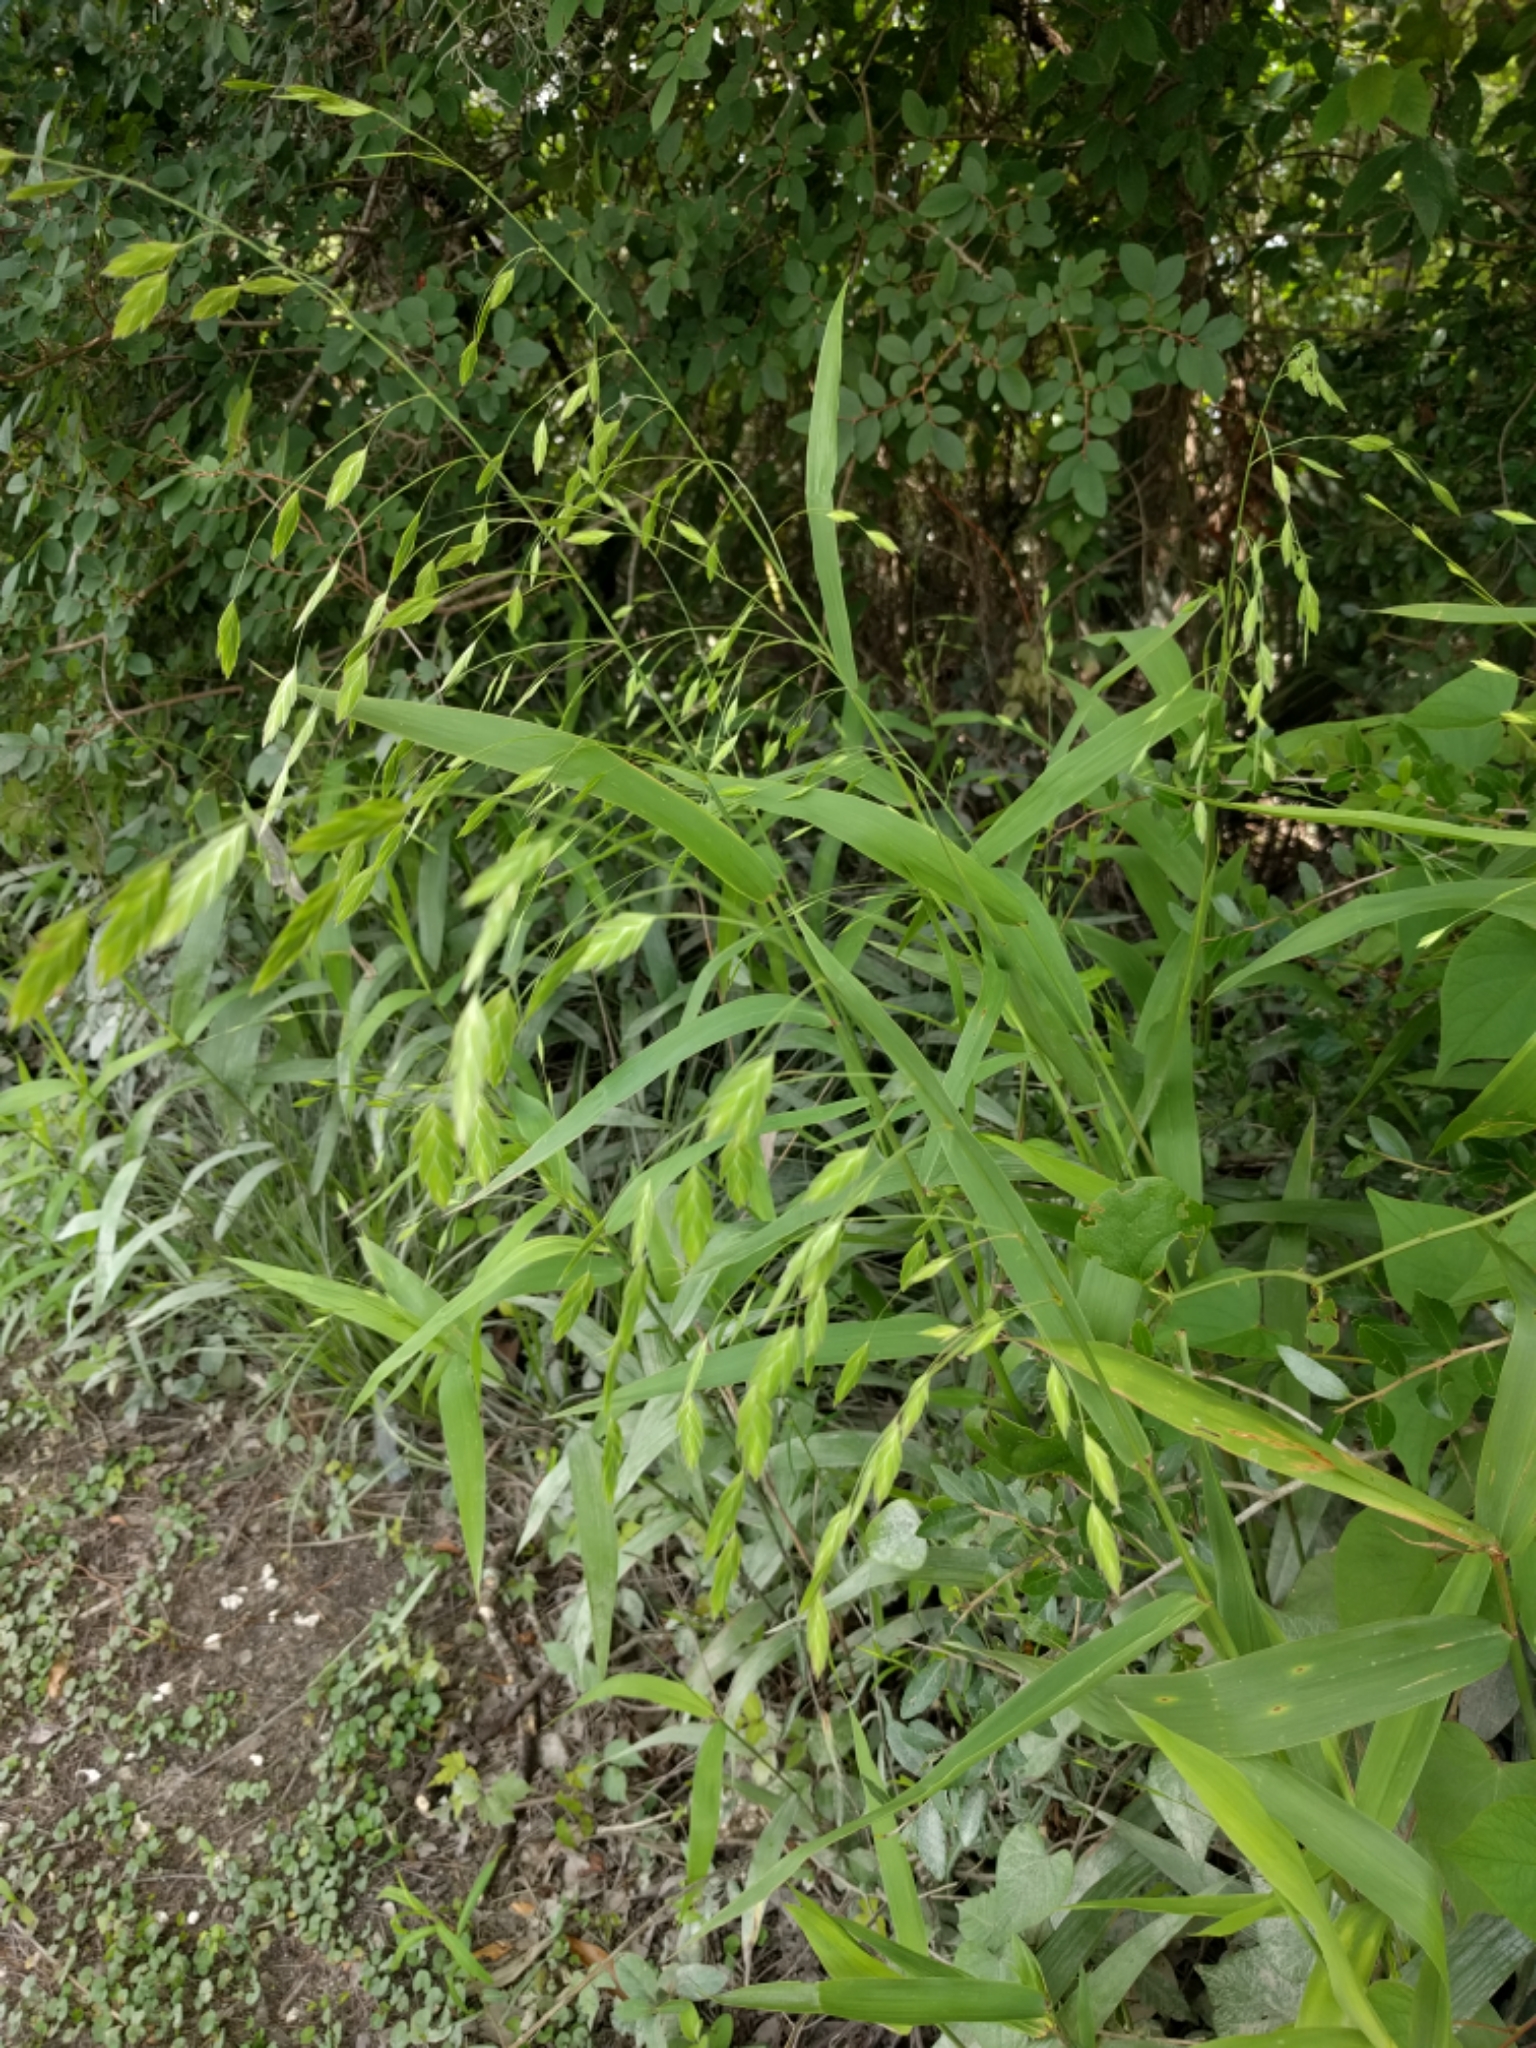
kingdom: Plantae
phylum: Tracheophyta
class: Liliopsida
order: Poales
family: Poaceae
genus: Chasmanthium
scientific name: Chasmanthium latifolium
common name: Broad-leaved chasmanthium
